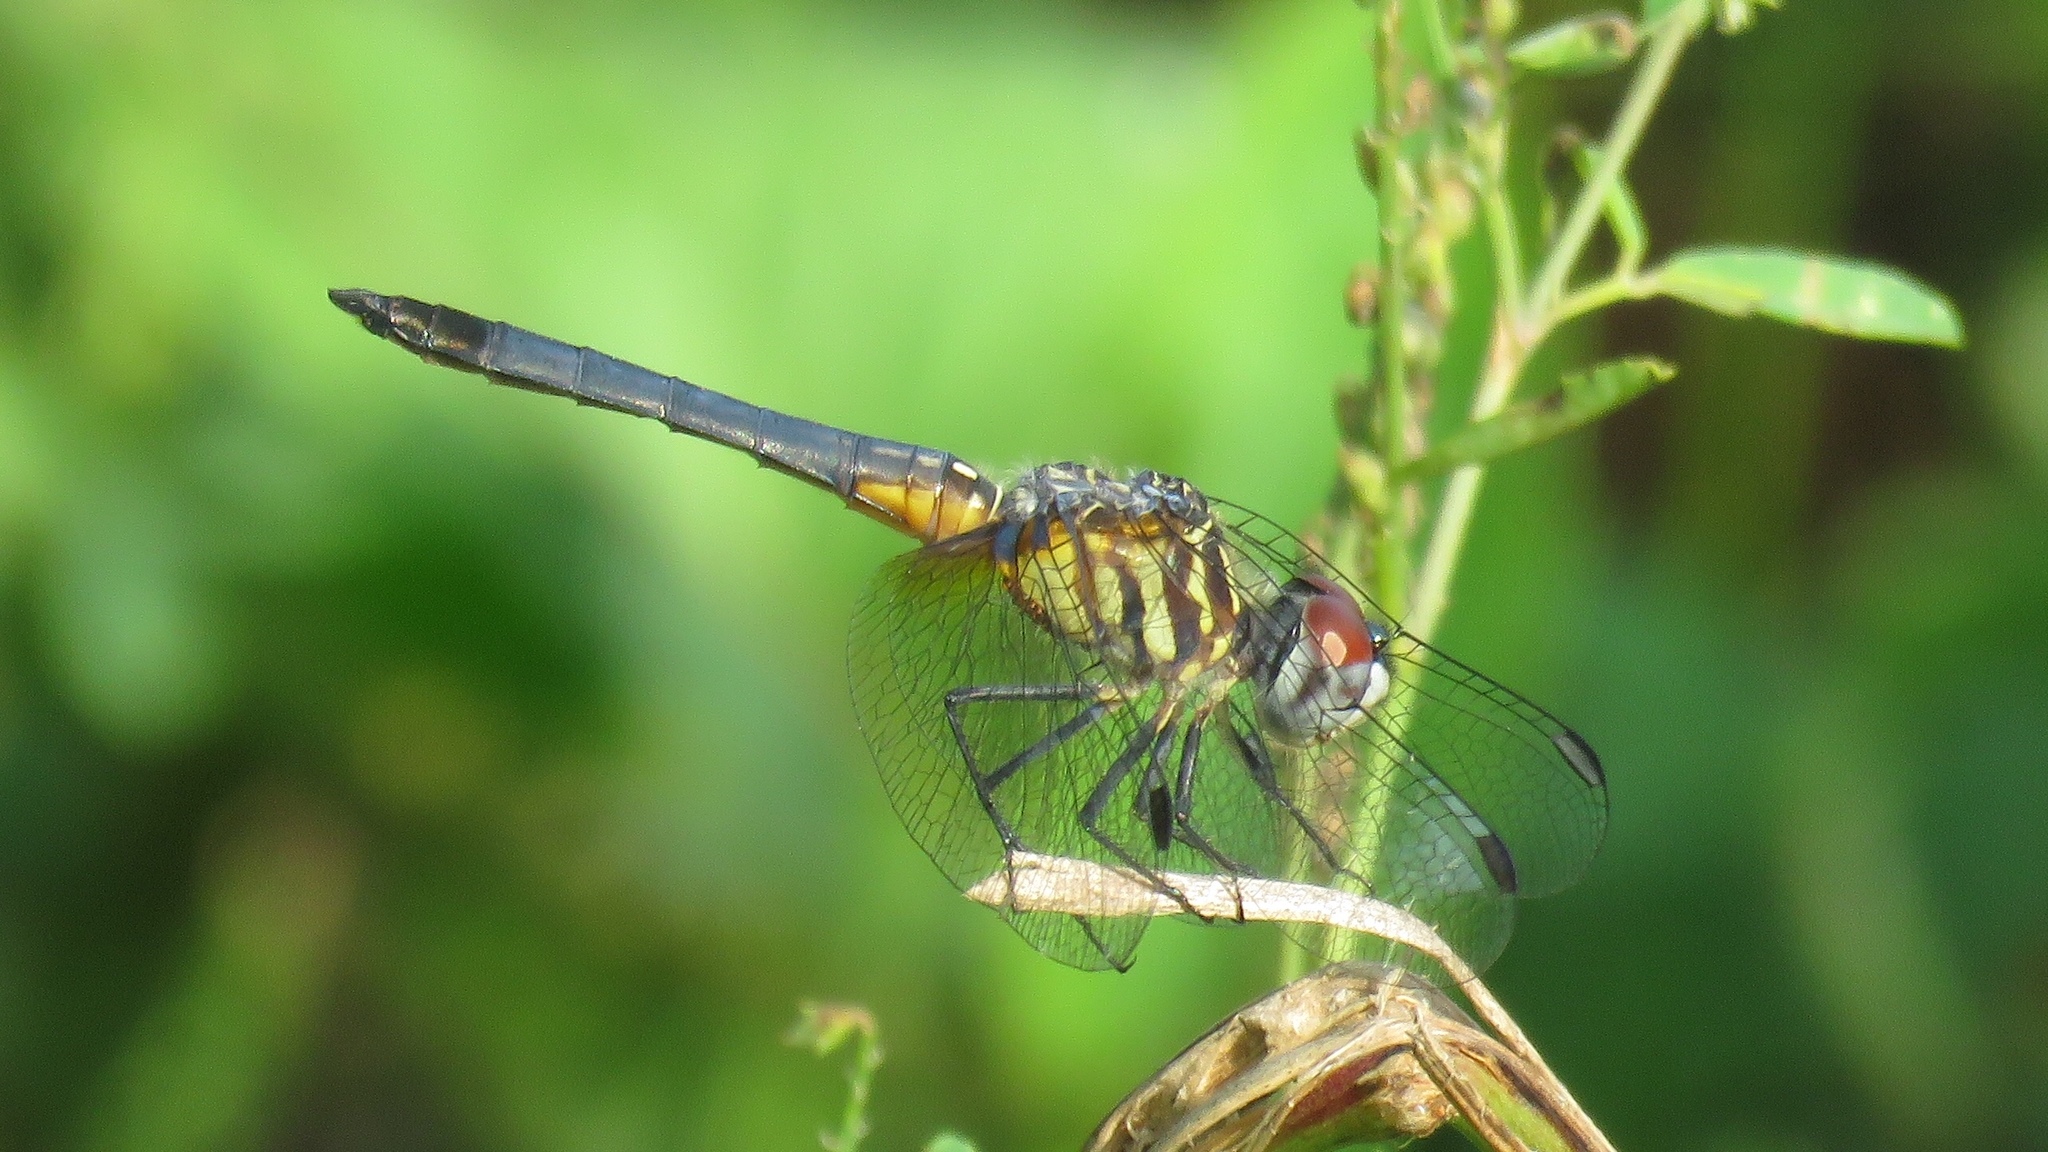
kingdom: Animalia
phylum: Arthropoda
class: Insecta
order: Odonata
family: Libellulidae
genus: Pachydiplax
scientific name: Pachydiplax longipennis
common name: Blue dasher
